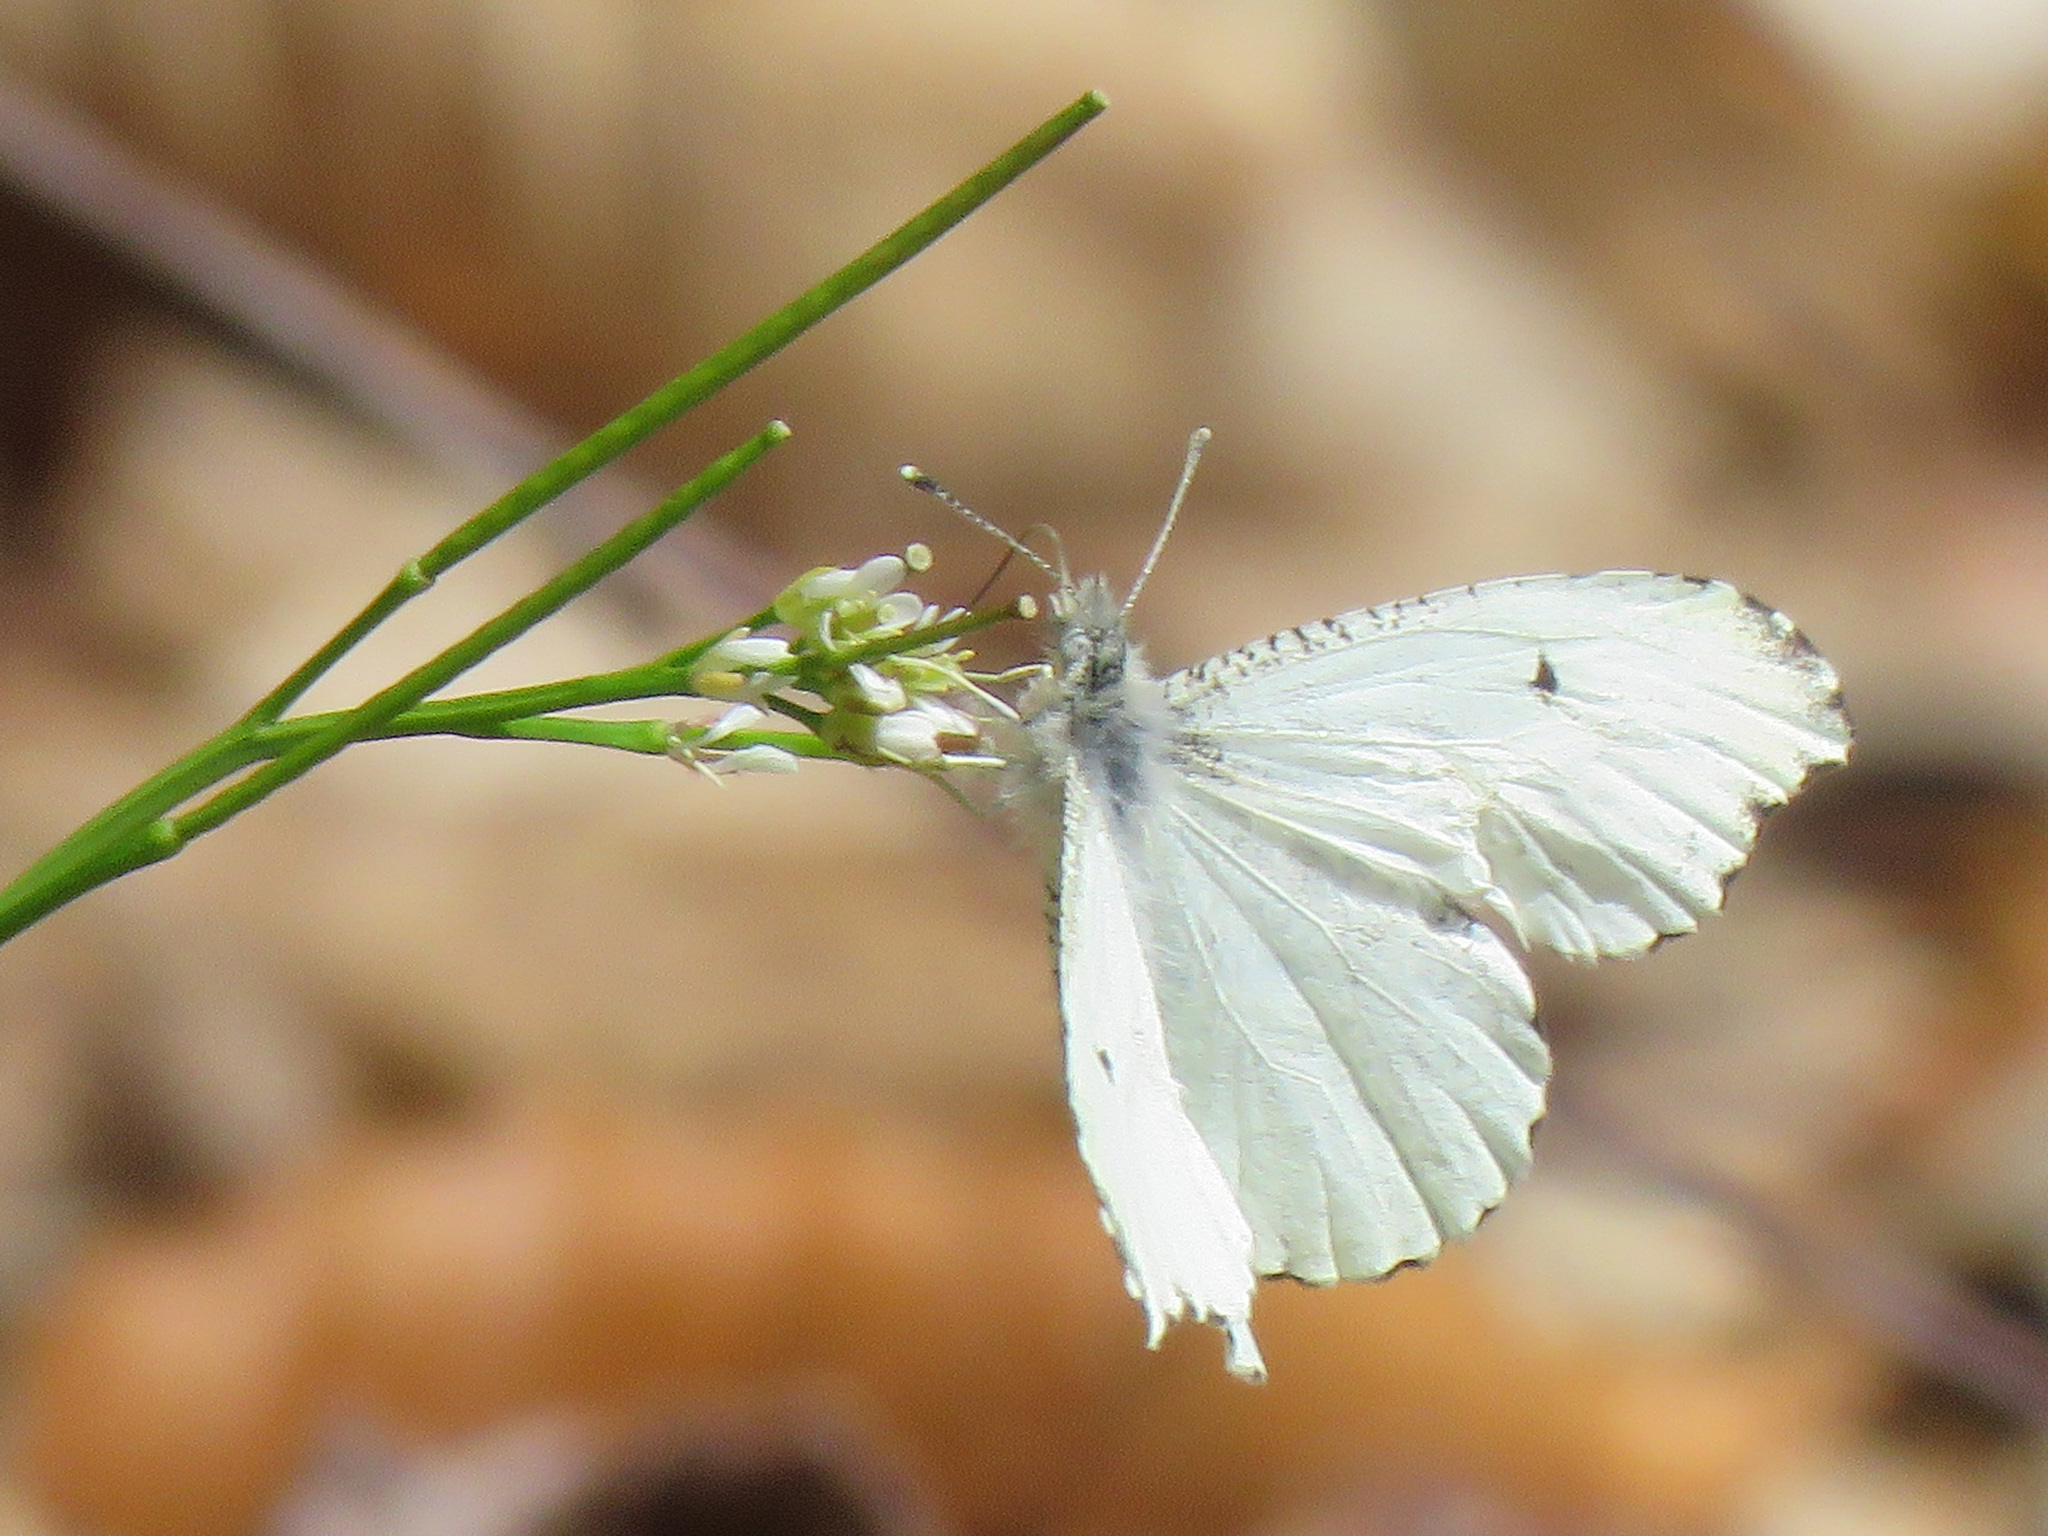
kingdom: Animalia
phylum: Arthropoda
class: Insecta
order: Lepidoptera
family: Pieridae
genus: Anthocharis
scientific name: Anthocharis midea
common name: Falcate orangetip
